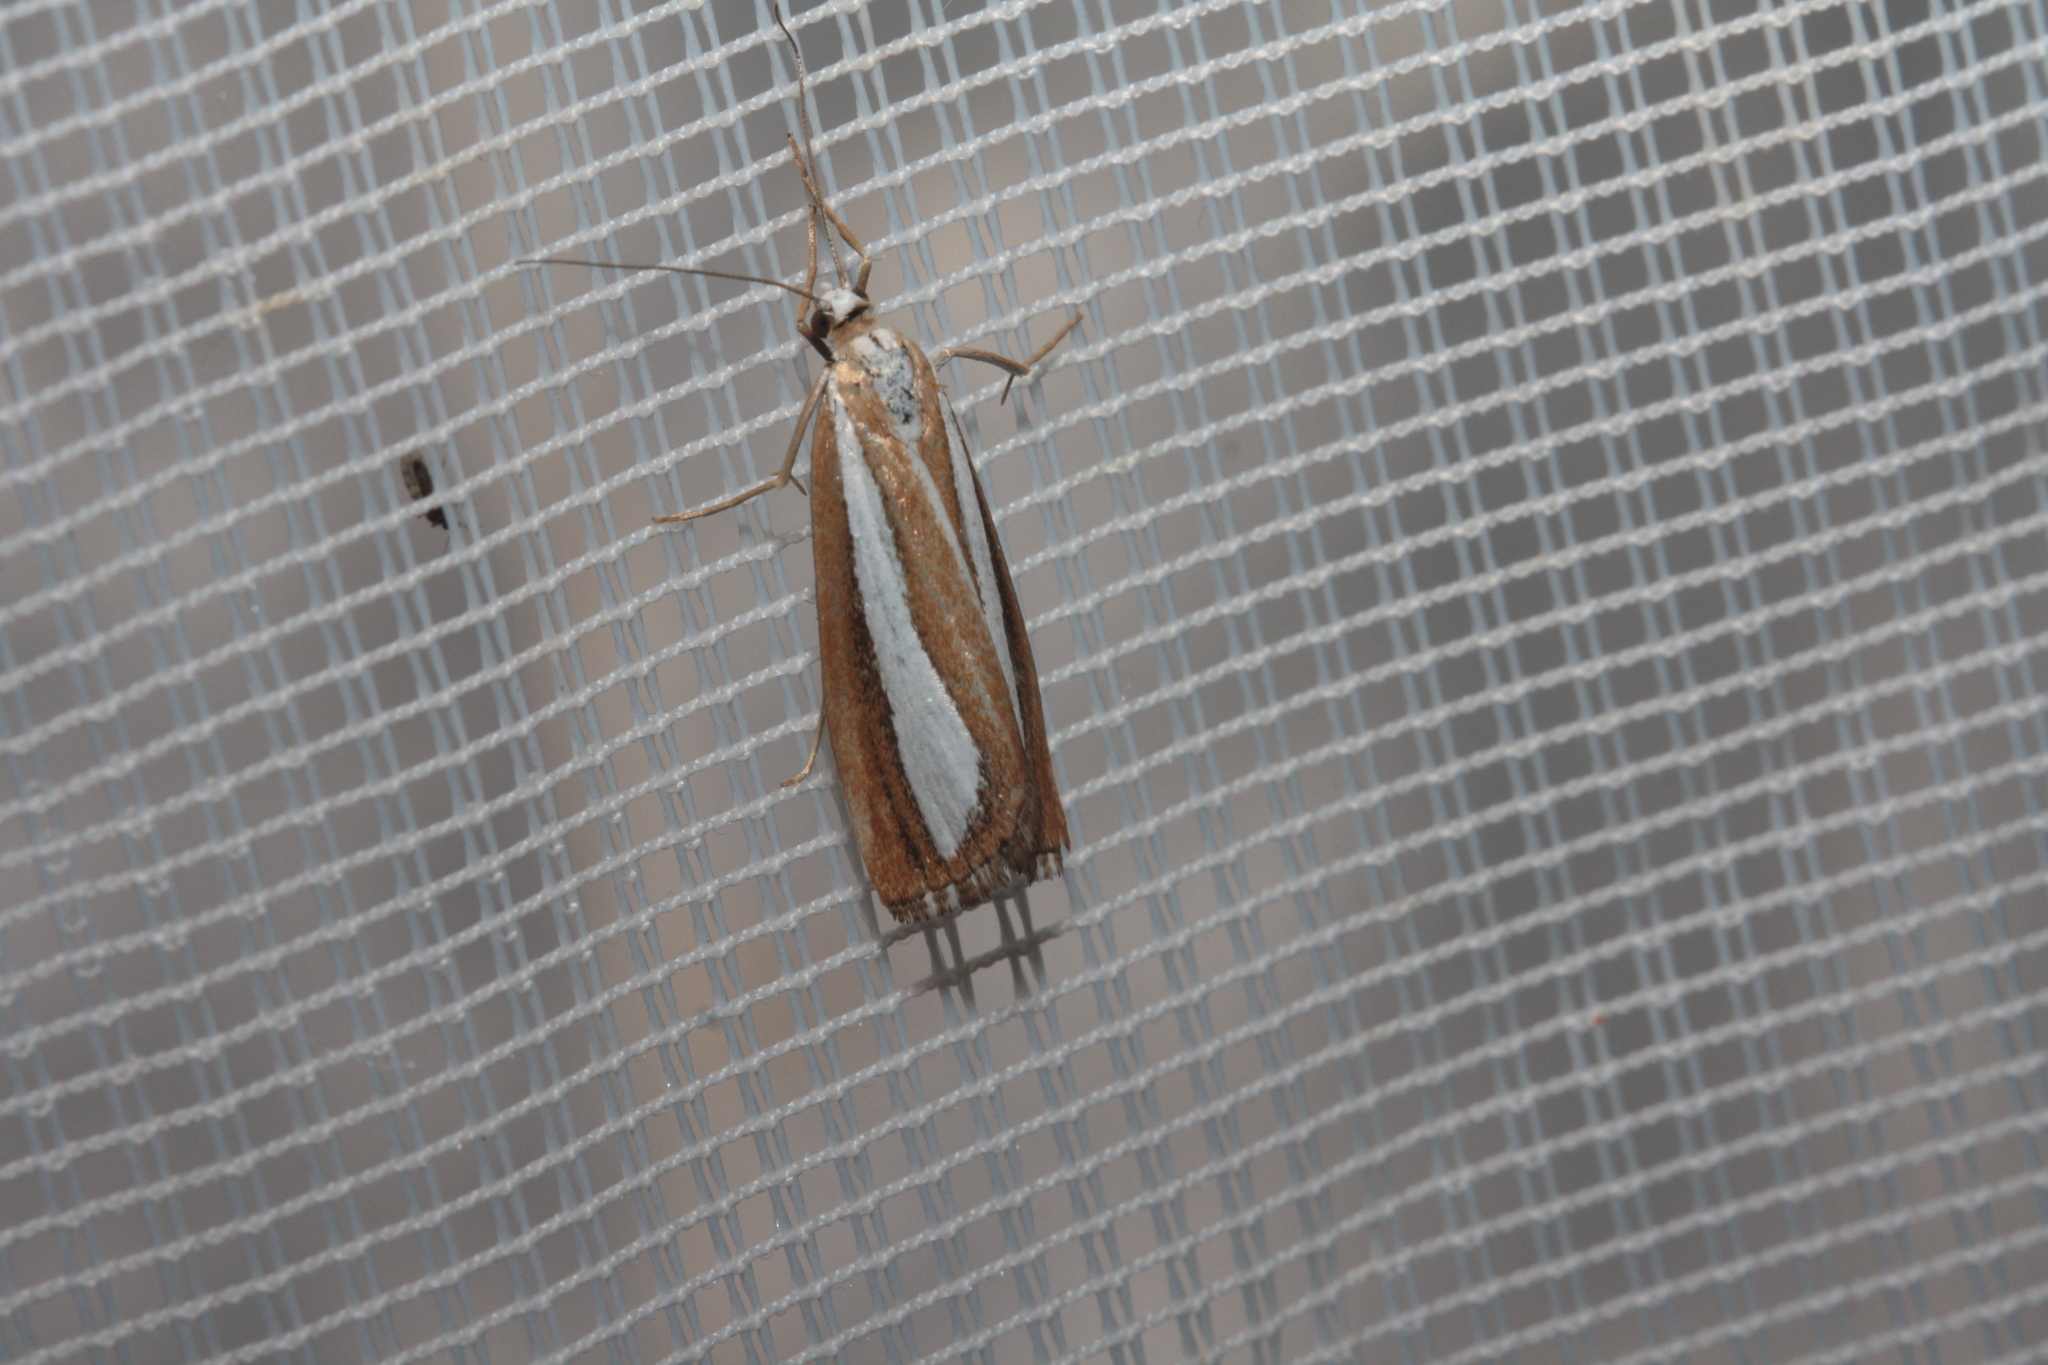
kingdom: Animalia
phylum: Arthropoda
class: Insecta
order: Lepidoptera
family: Crambidae
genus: Catoptria
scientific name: Catoptria pyramidellus
